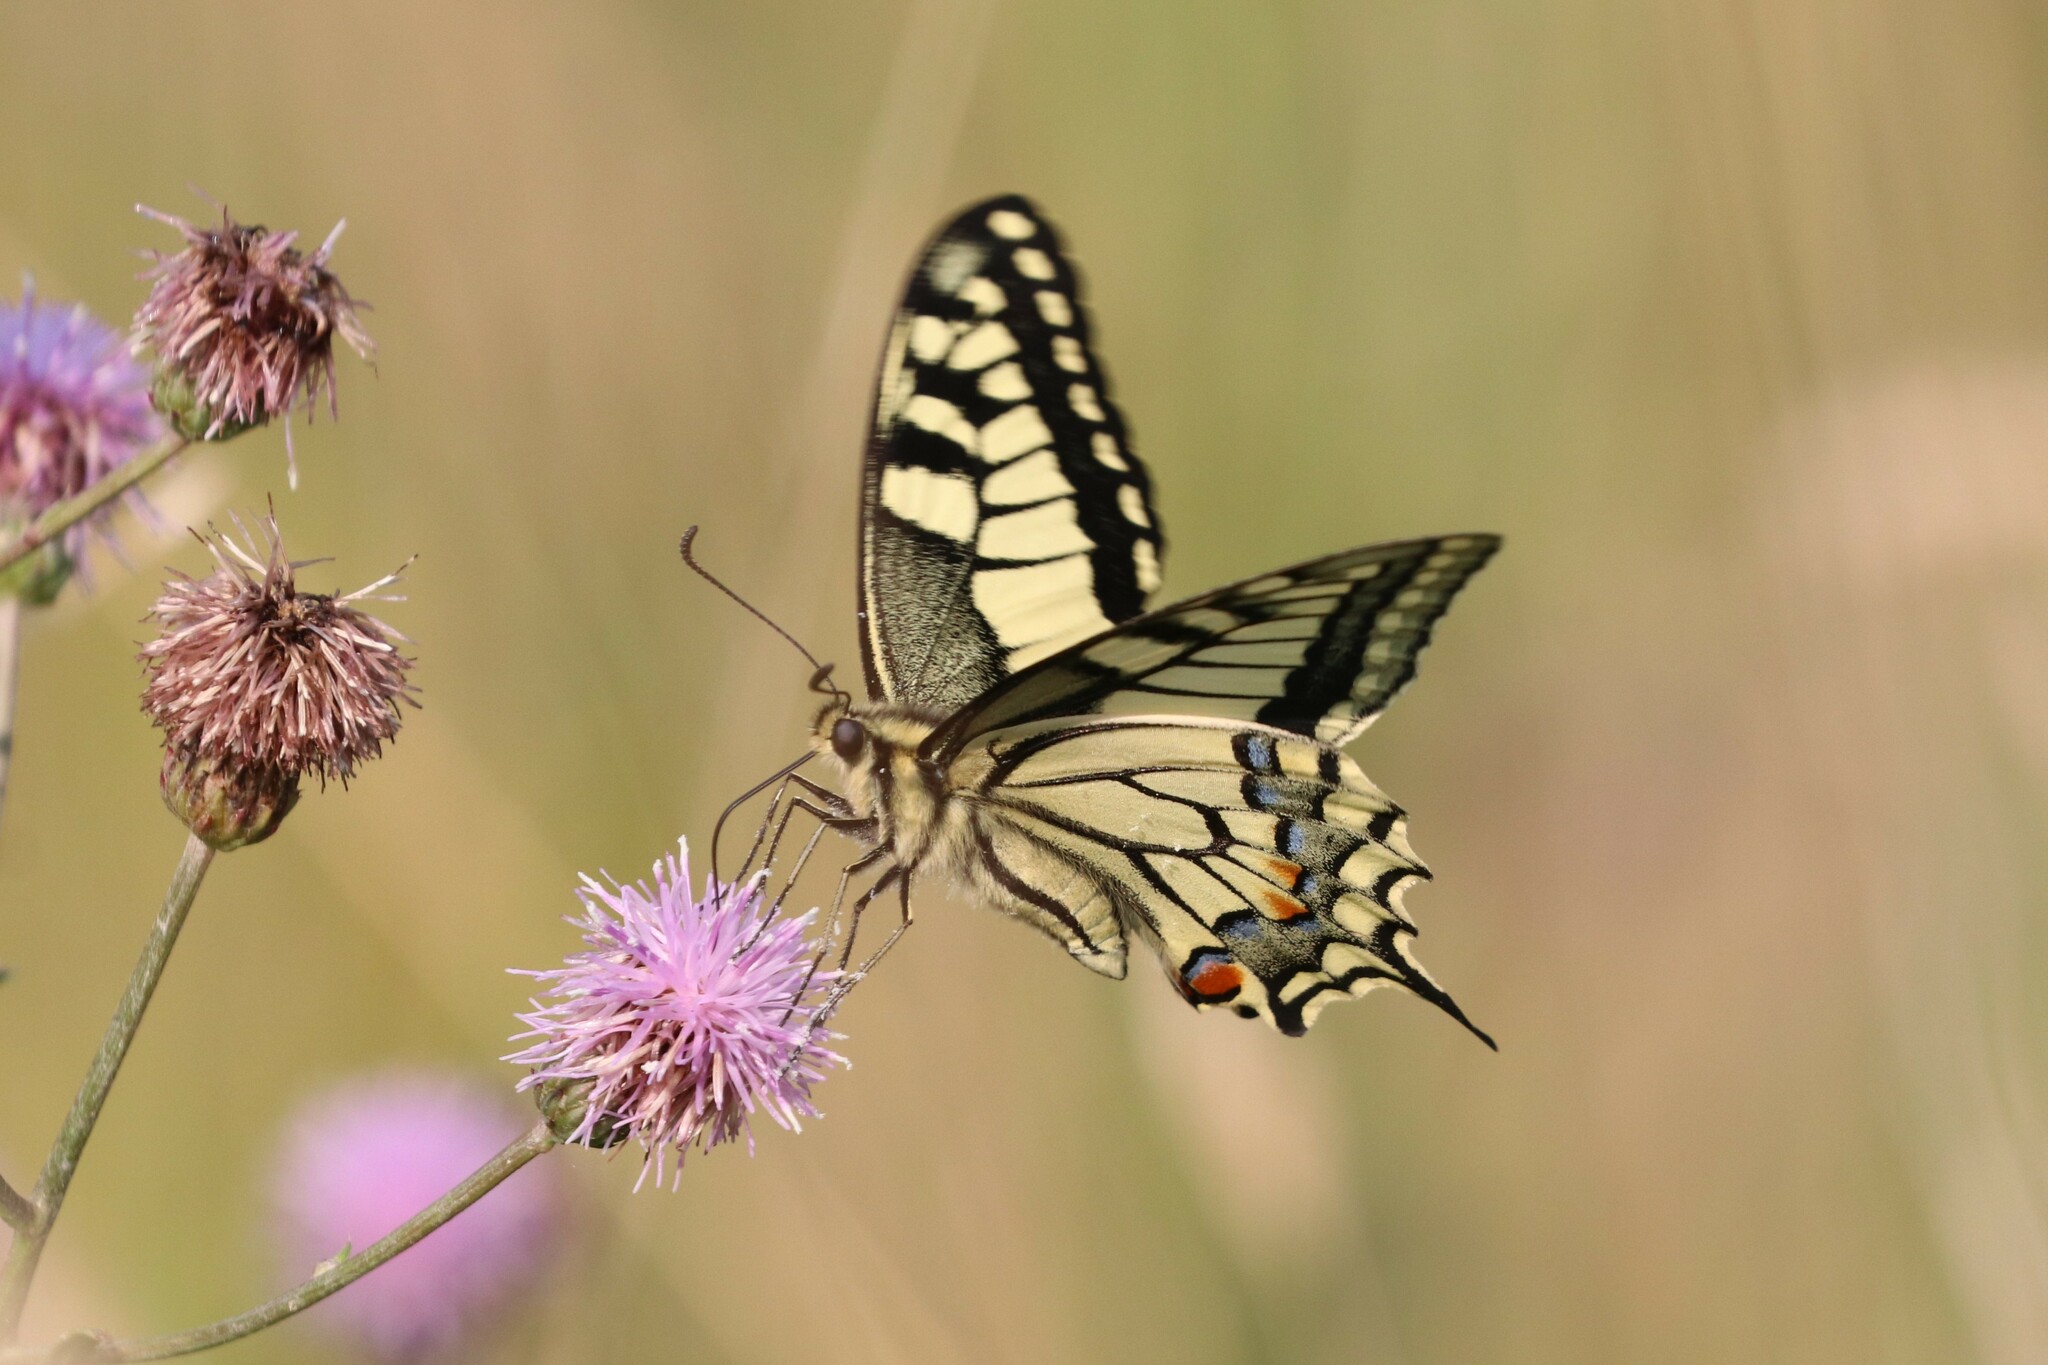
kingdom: Animalia
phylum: Arthropoda
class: Insecta
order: Lepidoptera
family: Papilionidae
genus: Papilio
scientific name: Papilio machaon
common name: Swallowtail
